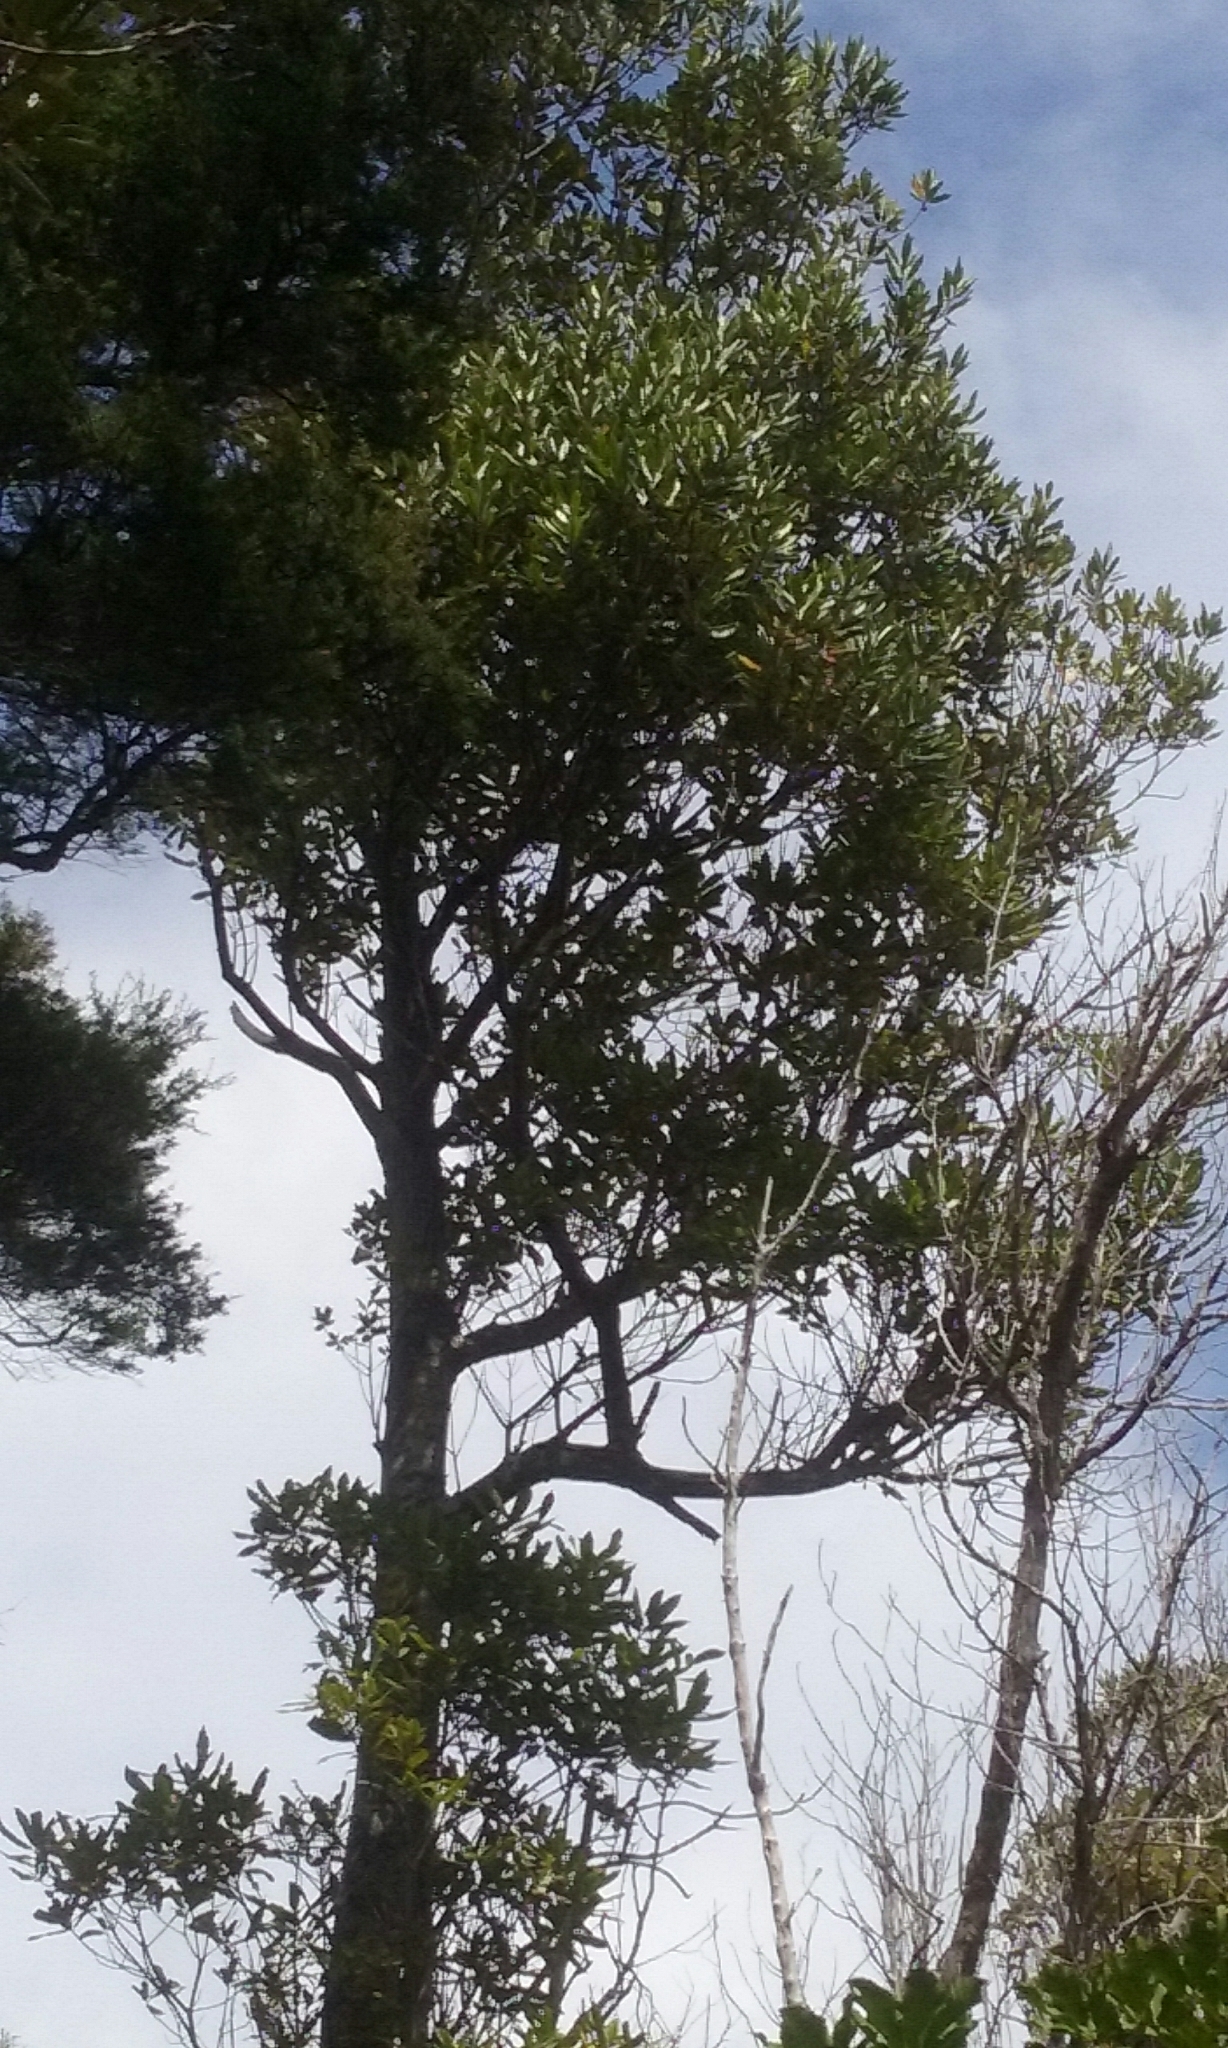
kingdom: Plantae
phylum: Tracheophyta
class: Magnoliopsida
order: Oxalidales
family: Elaeocarpaceae
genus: Elaeocarpus
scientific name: Elaeocarpus dentatus
